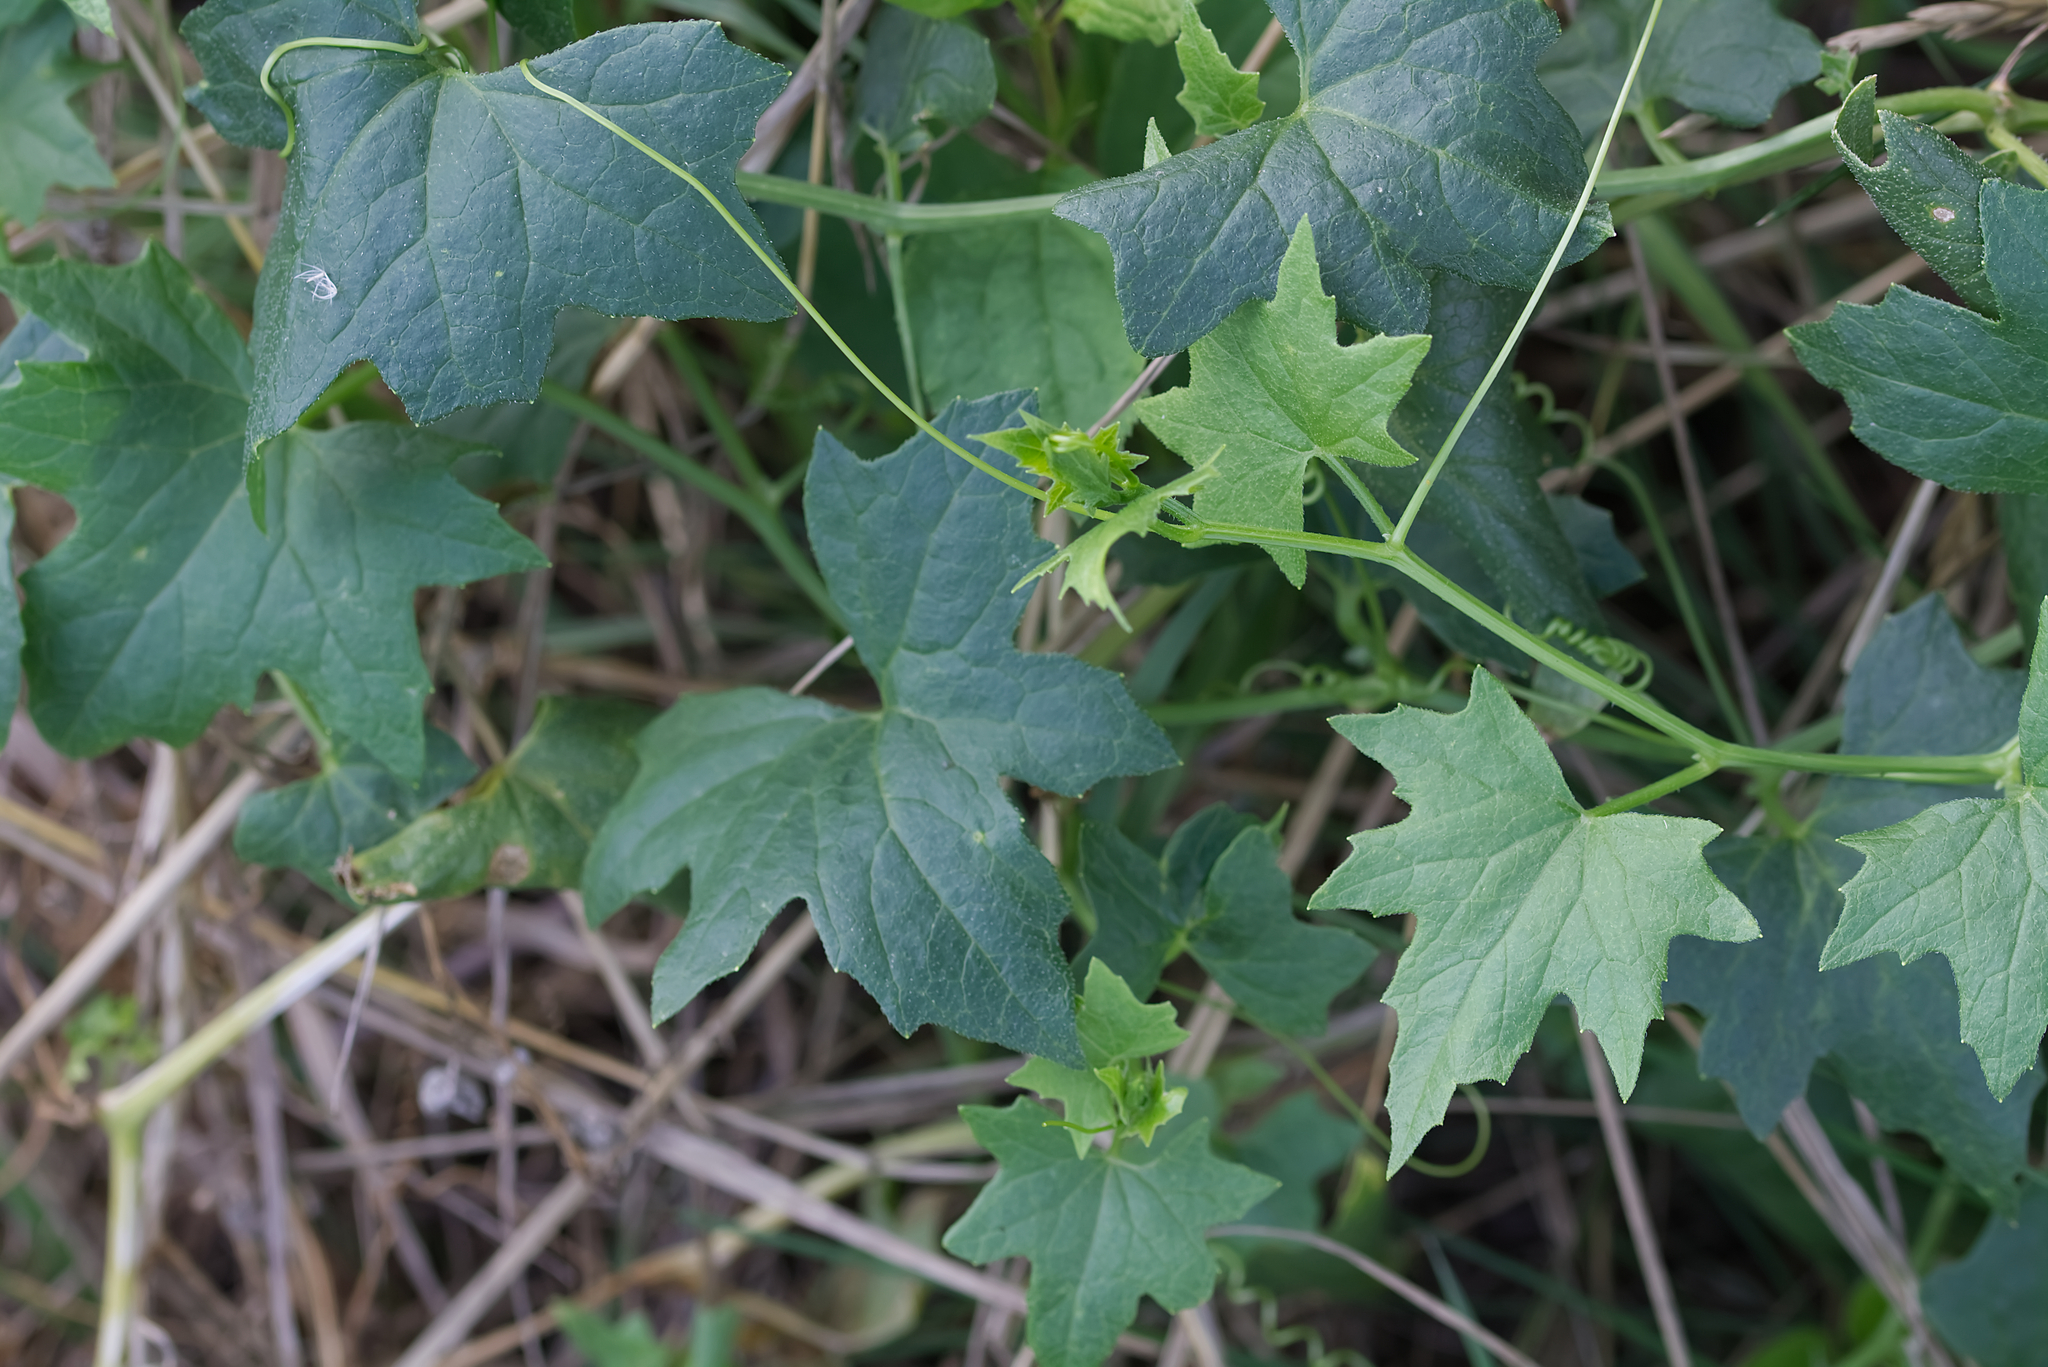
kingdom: Plantae
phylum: Tracheophyta
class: Magnoliopsida
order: Cucurbitales
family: Cucurbitaceae
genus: Bryonia
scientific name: Bryonia alba
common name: White bryony
